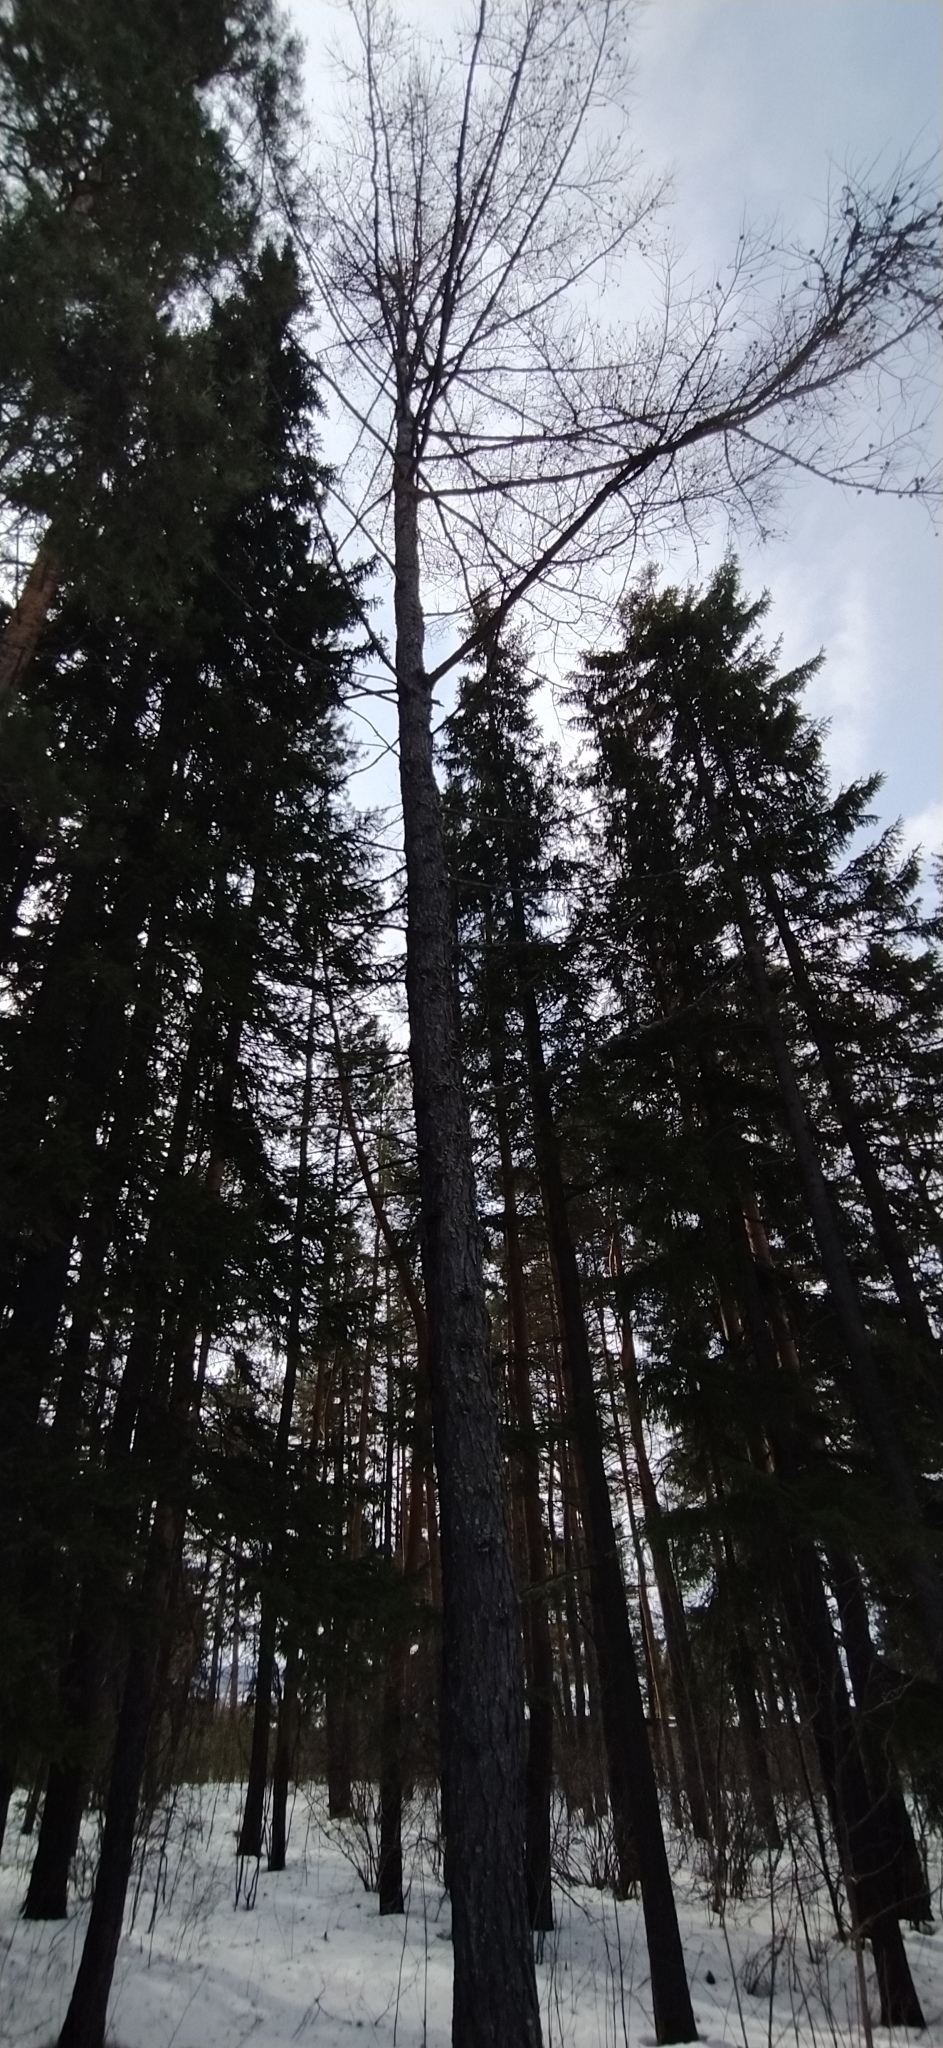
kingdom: Plantae
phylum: Tracheophyta
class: Pinopsida
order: Pinales
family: Pinaceae
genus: Larix
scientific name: Larix sibirica
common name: Siberian larch
